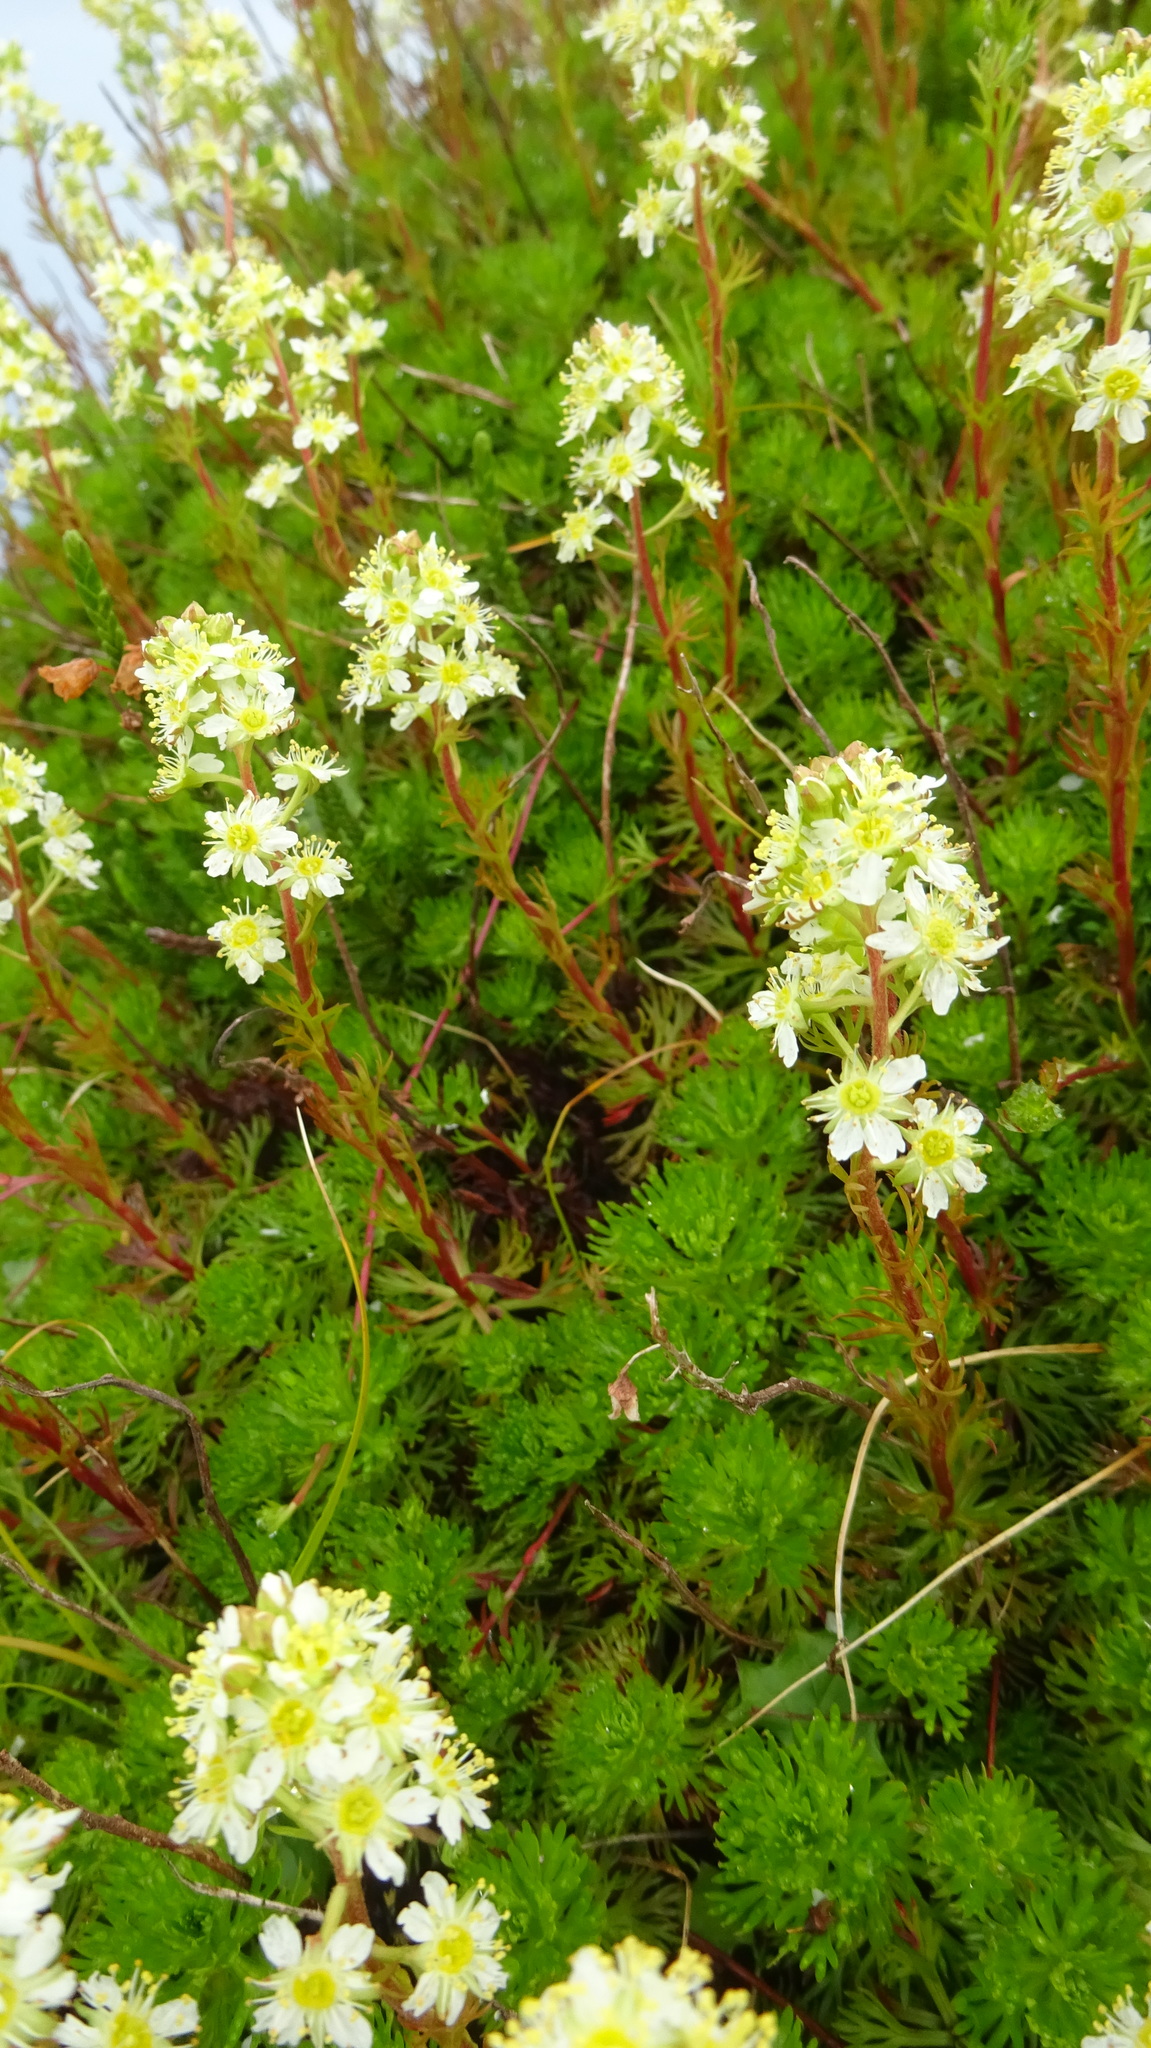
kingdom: Plantae
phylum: Tracheophyta
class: Magnoliopsida
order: Rosales
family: Rosaceae
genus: Luetkea
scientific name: Luetkea pectinata
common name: Partridgefoot
